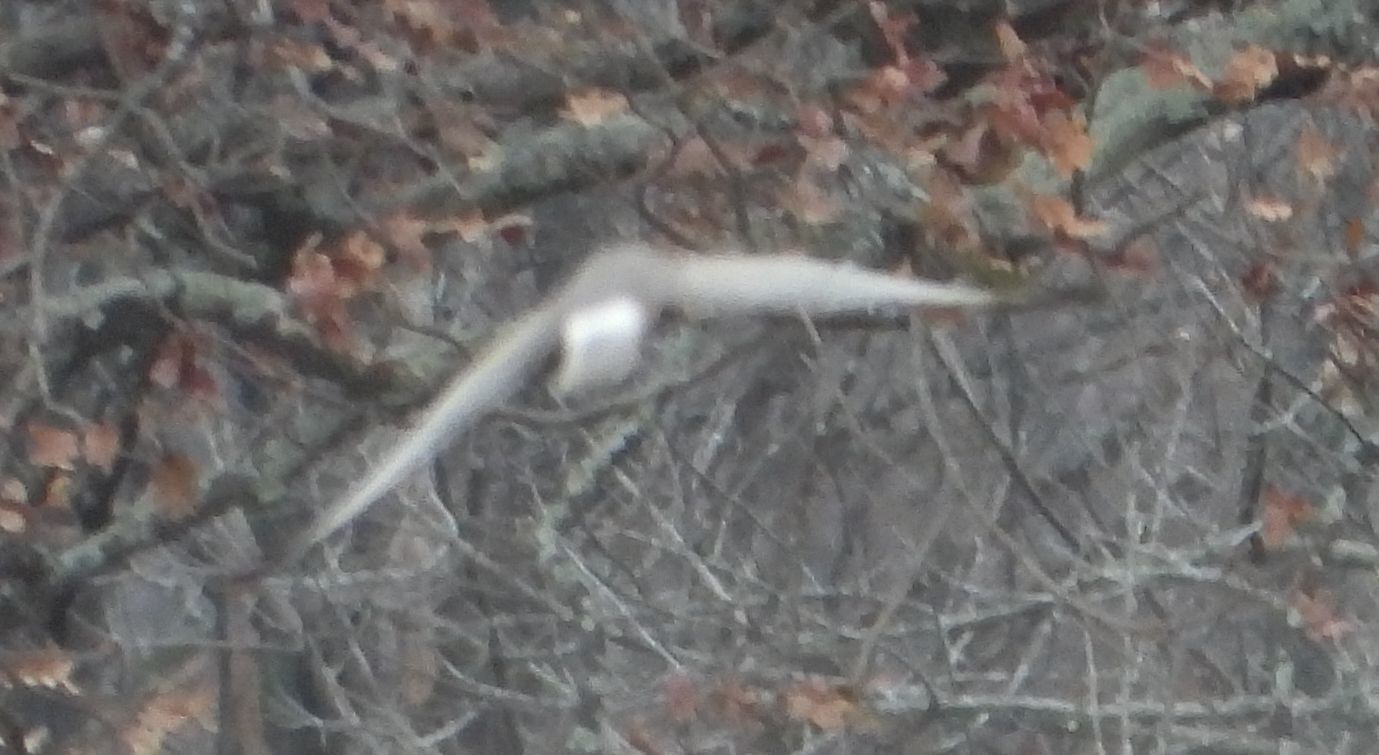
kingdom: Animalia
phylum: Chordata
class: Aves
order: Accipitriformes
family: Accipitridae
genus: Circus
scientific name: Circus cyaneus
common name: Hen harrier
